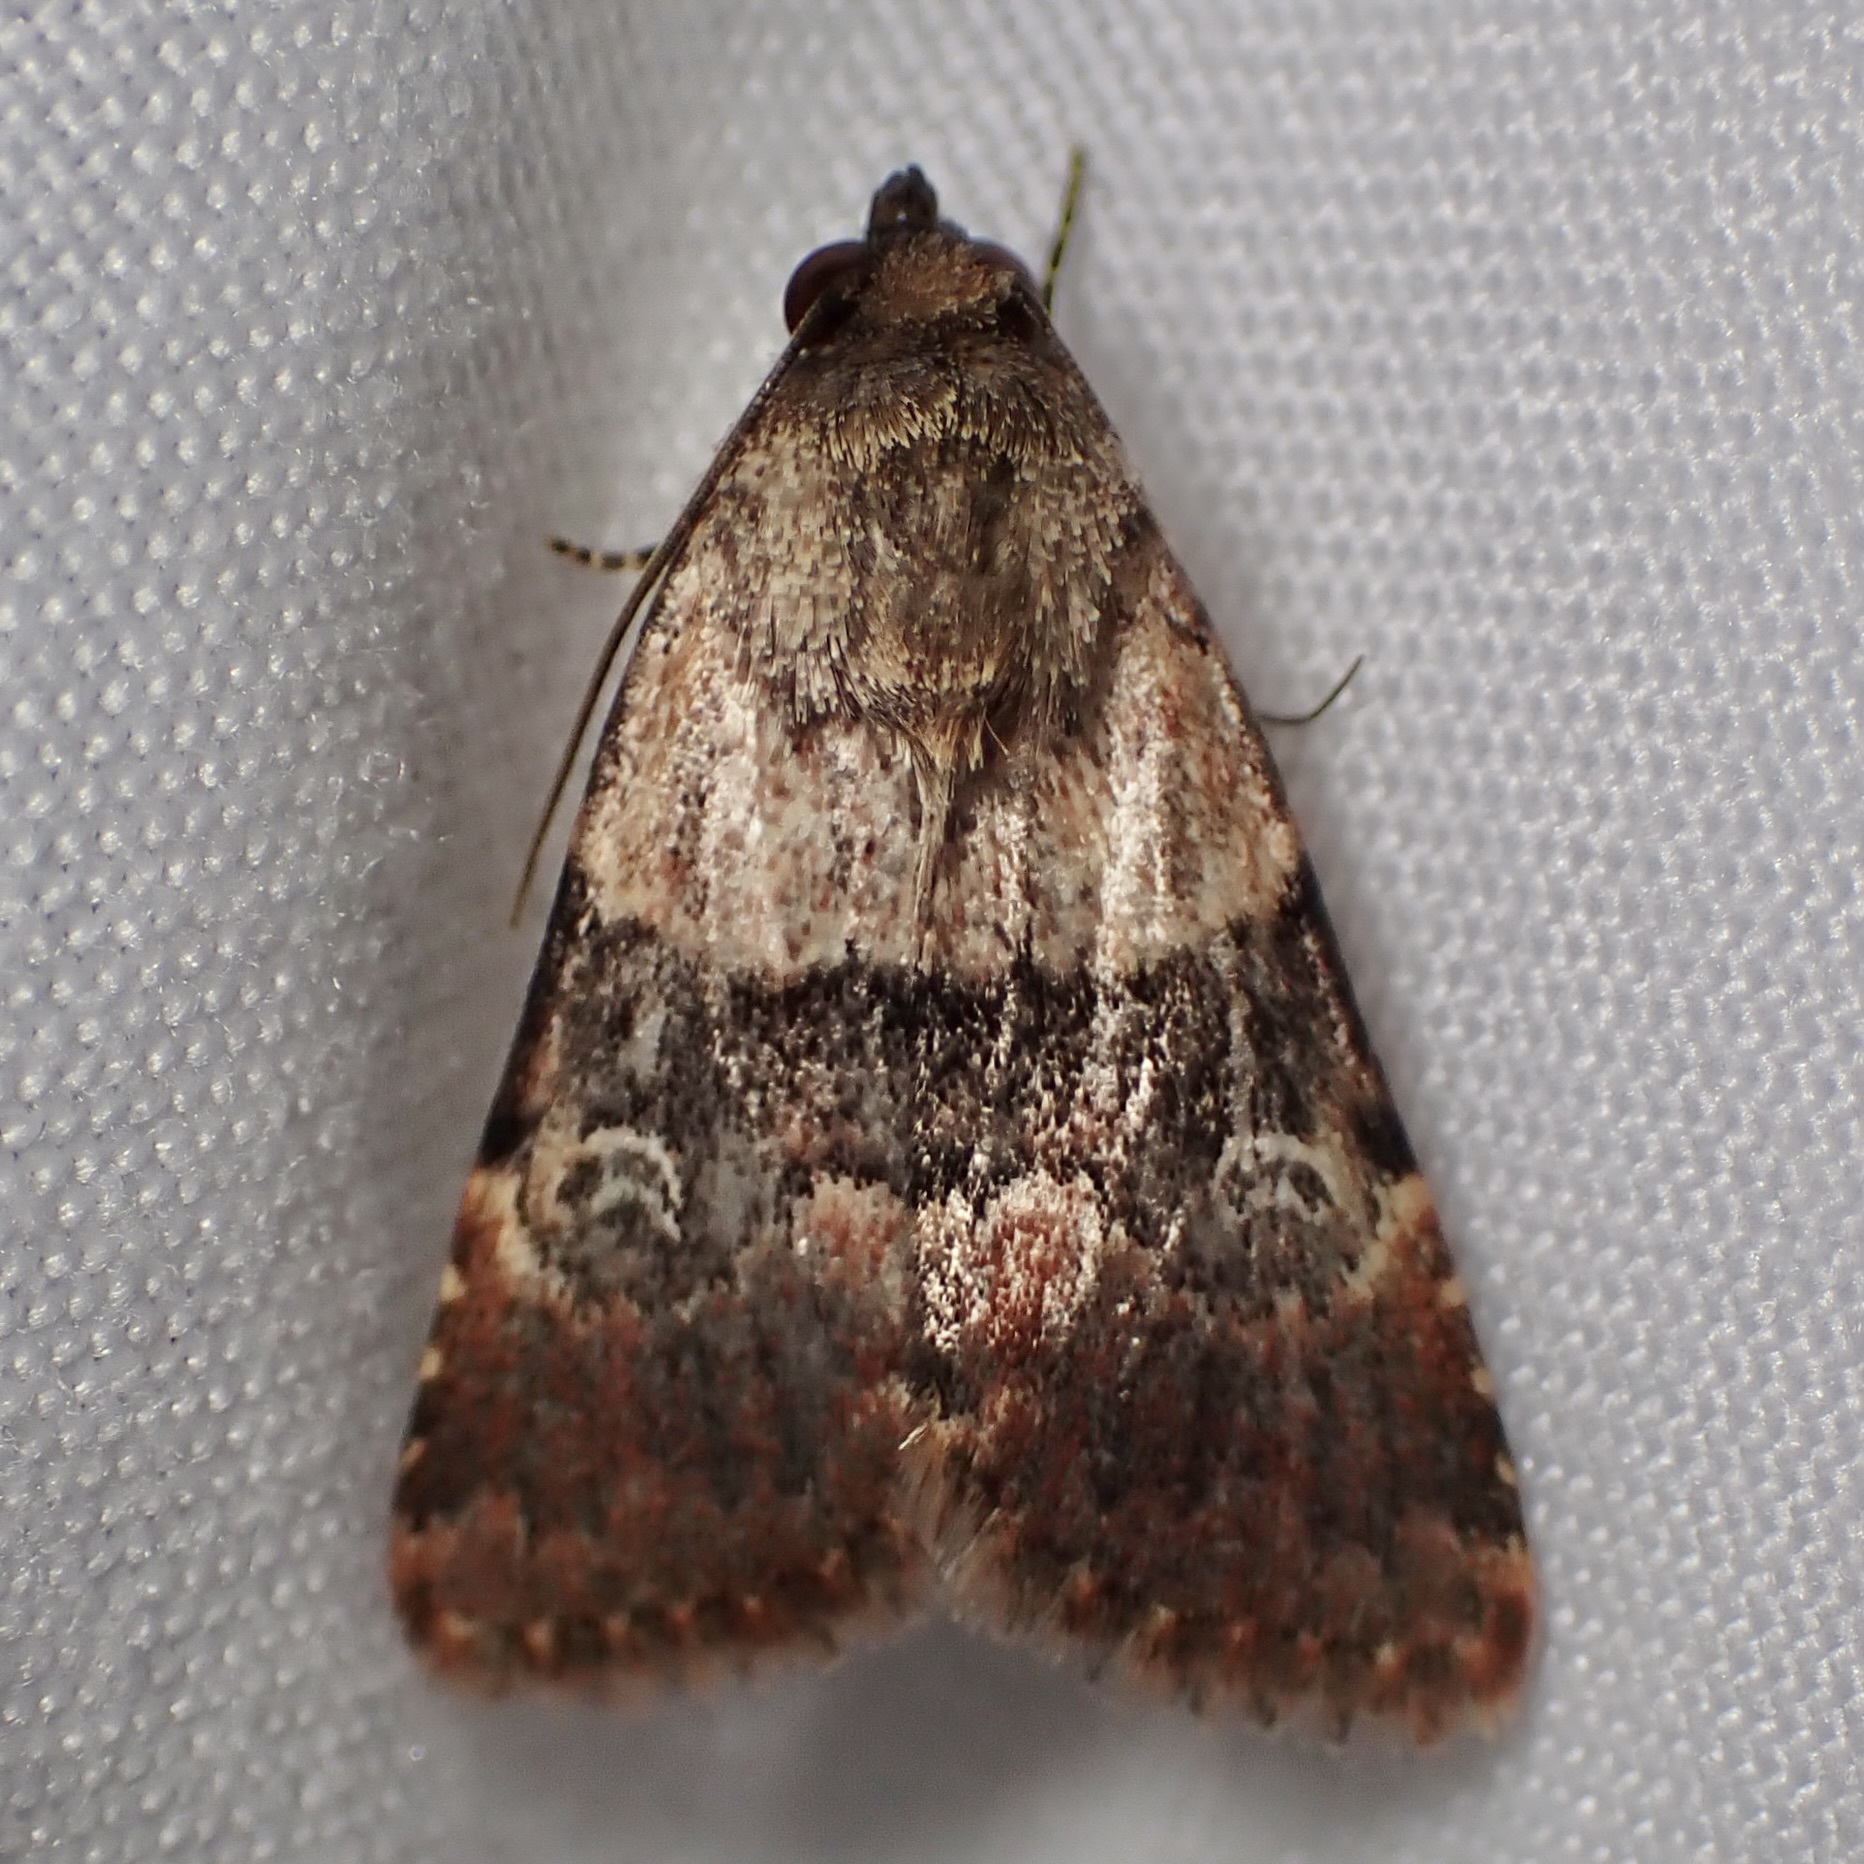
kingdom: Animalia
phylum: Arthropoda
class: Insecta
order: Lepidoptera
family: Noctuidae
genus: Properigea
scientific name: Properigea continens
